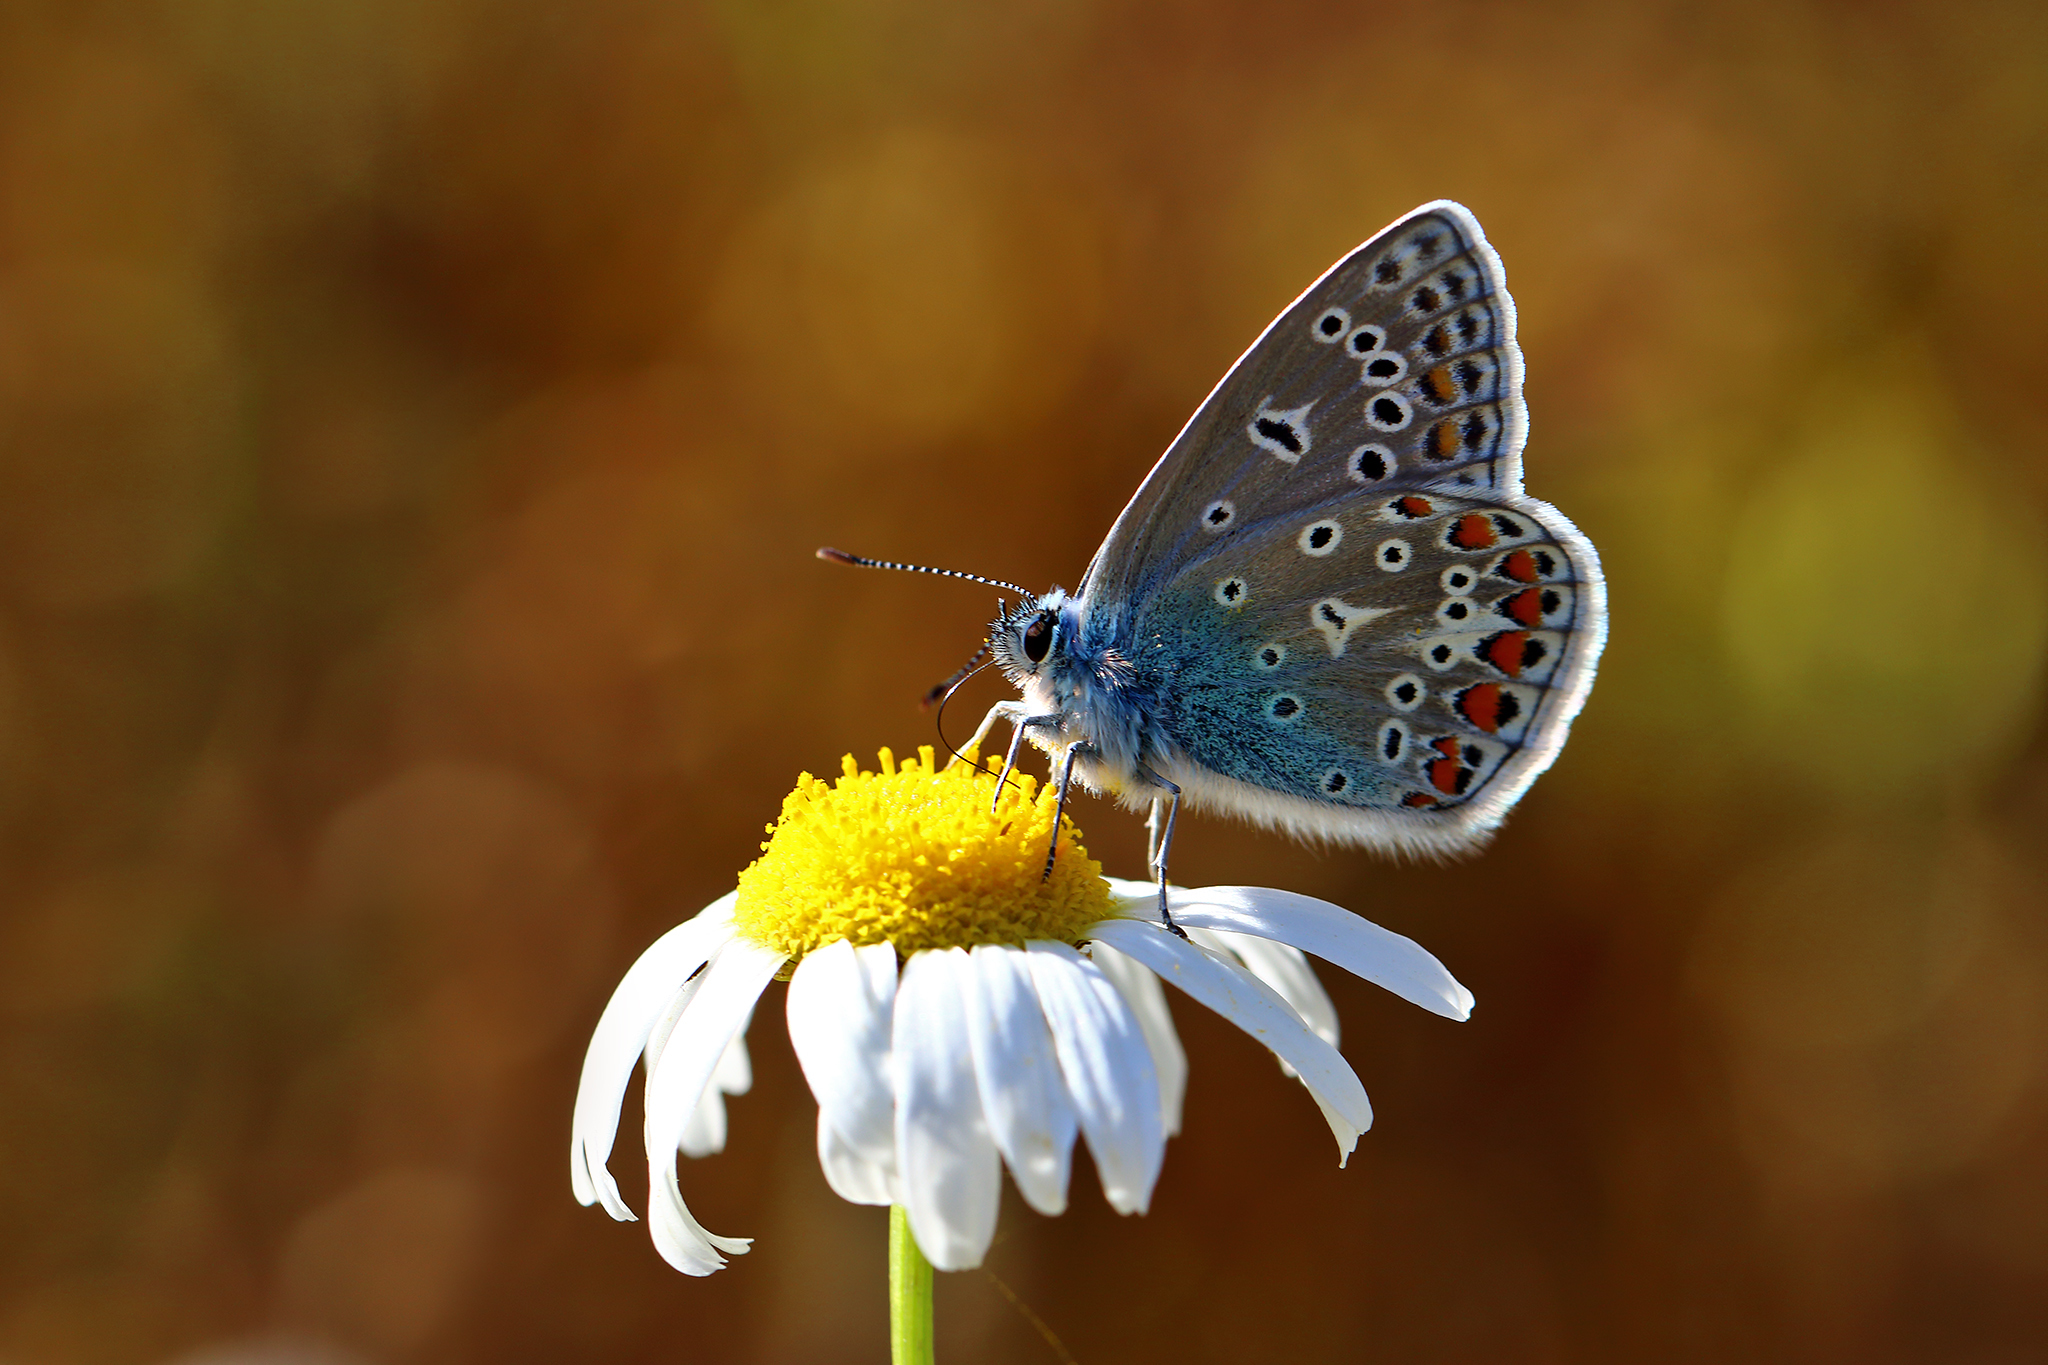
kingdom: Animalia
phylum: Arthropoda
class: Insecta
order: Lepidoptera
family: Lycaenidae
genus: Polyommatus
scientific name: Polyommatus icarus
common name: Common blue
